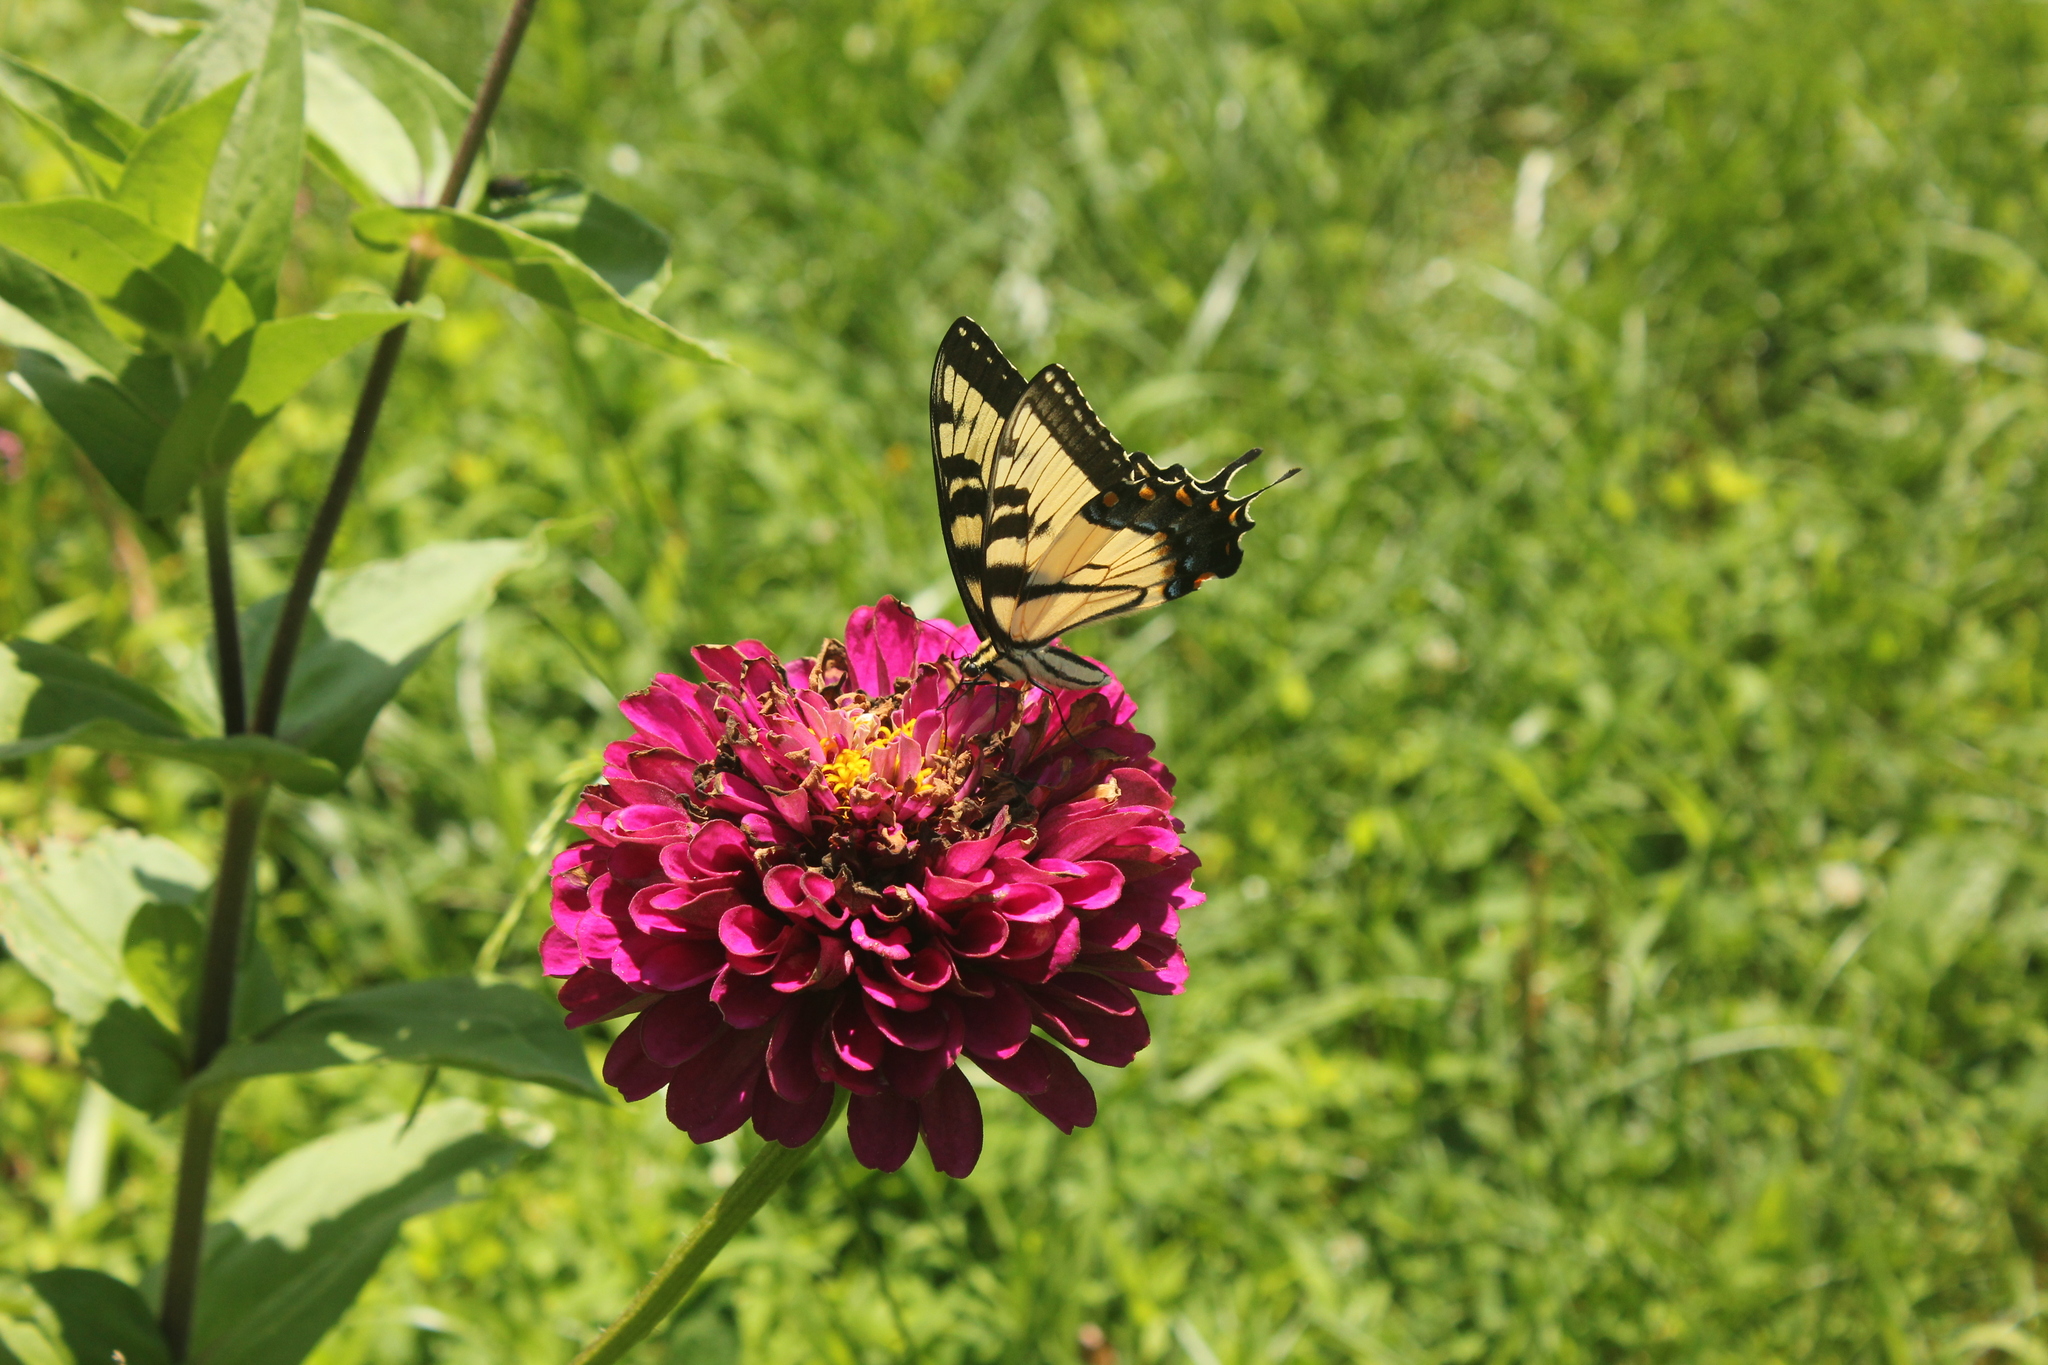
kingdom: Animalia
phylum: Arthropoda
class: Insecta
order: Lepidoptera
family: Papilionidae
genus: Papilio
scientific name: Papilio glaucus
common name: Tiger swallowtail
